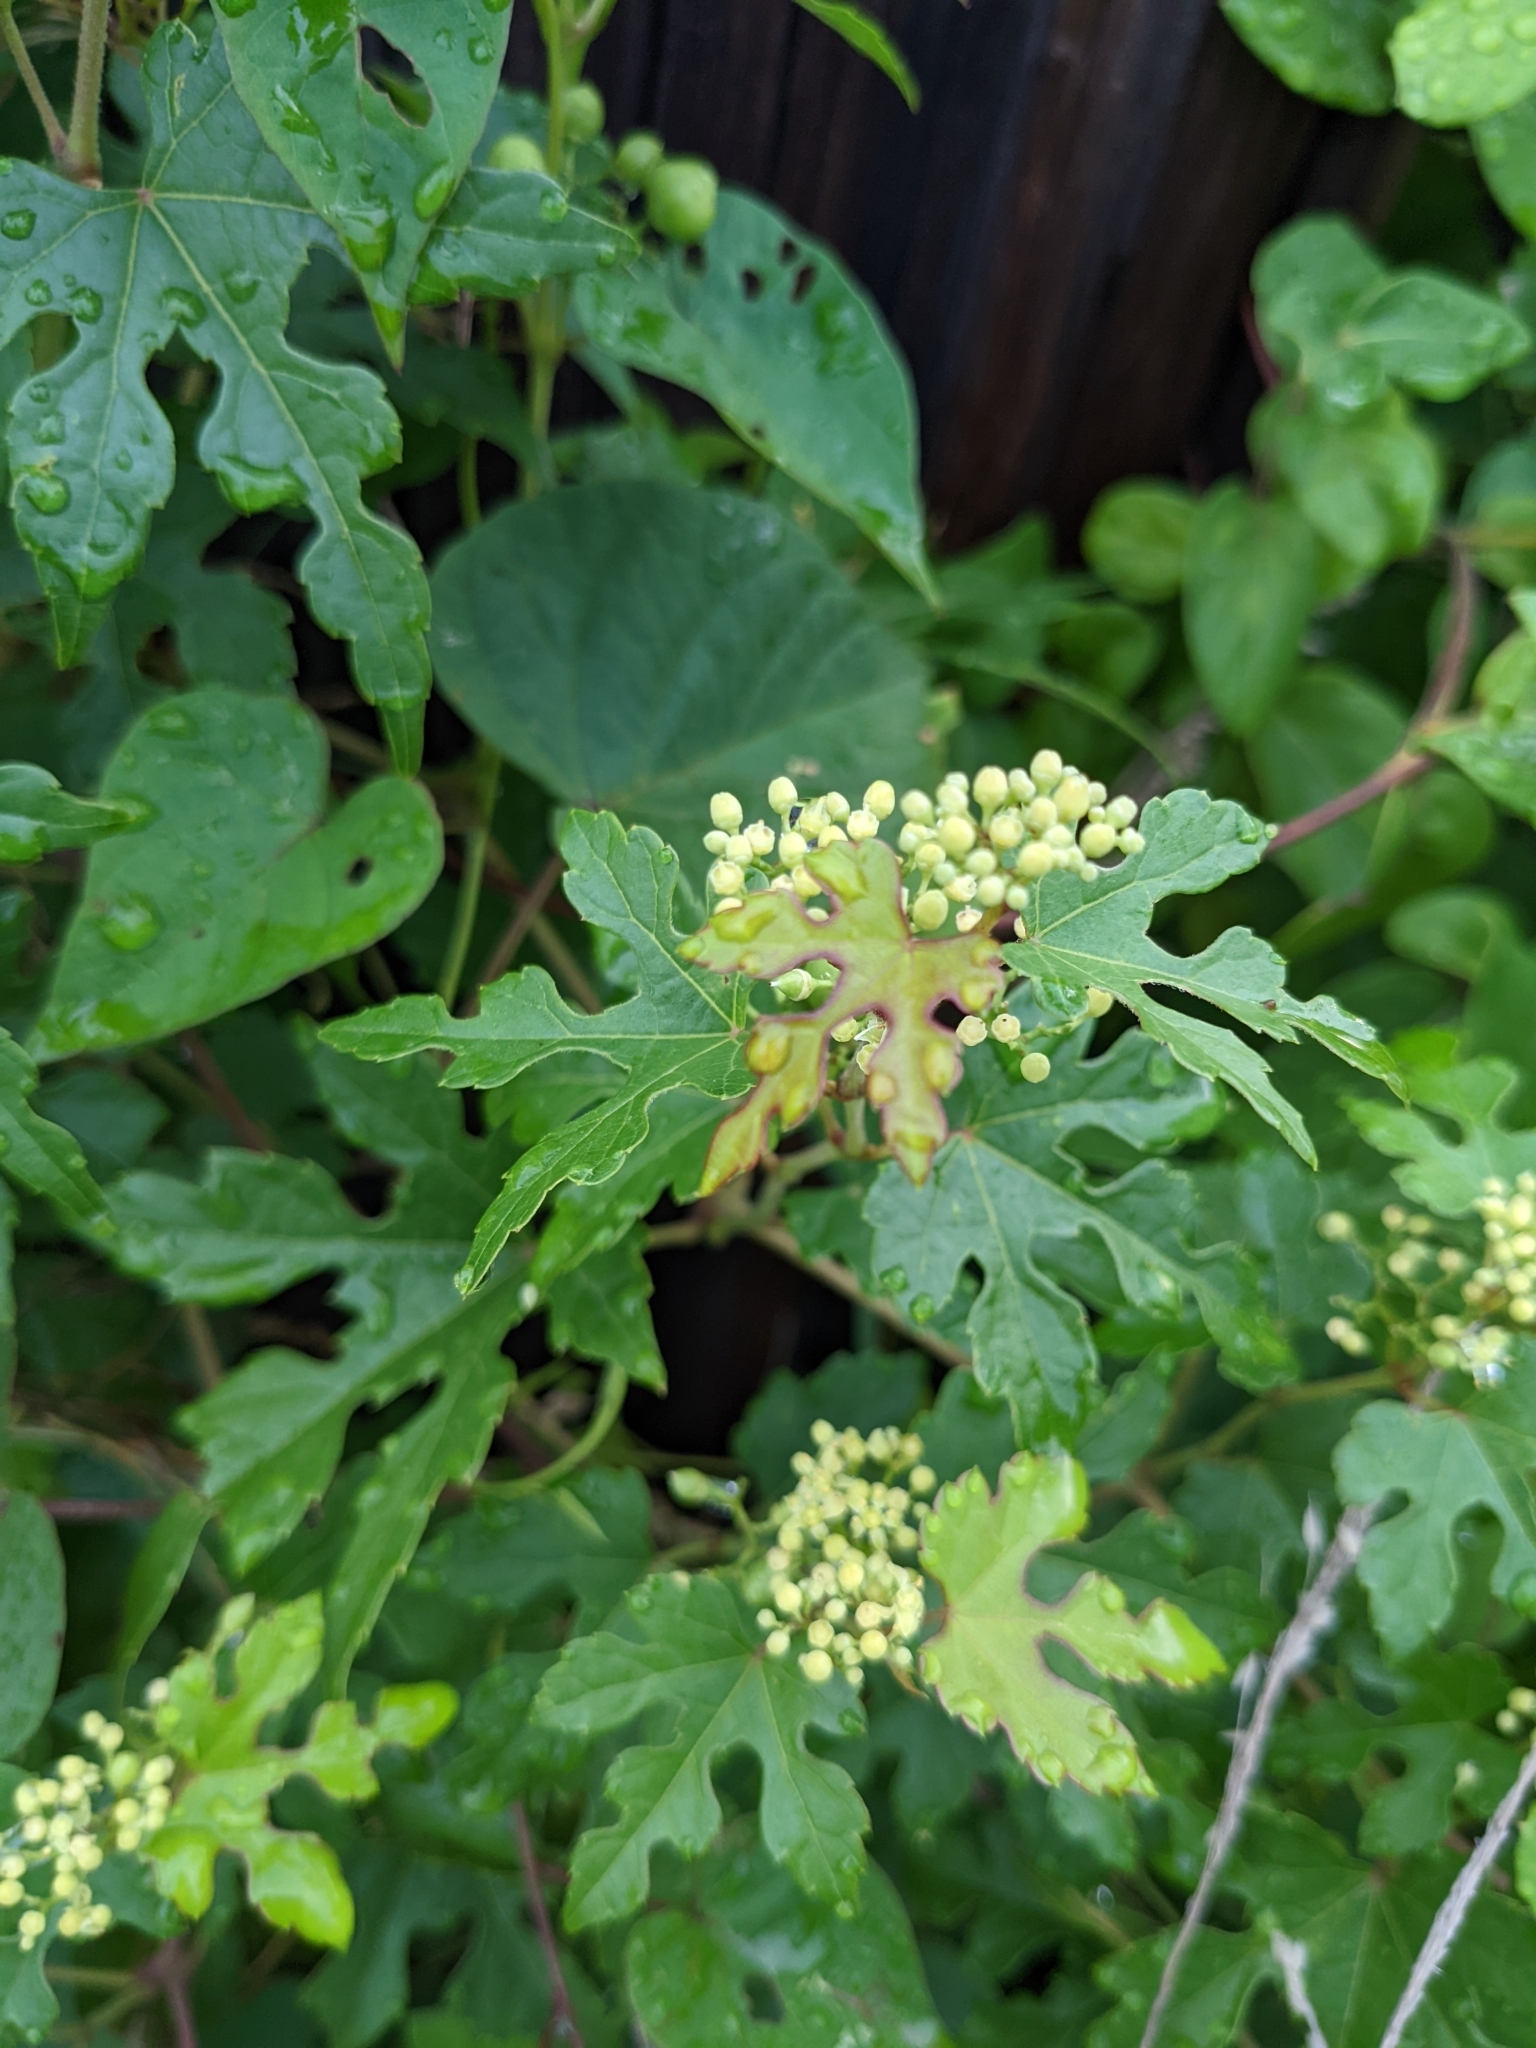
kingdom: Plantae
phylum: Tracheophyta
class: Magnoliopsida
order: Vitales
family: Vitaceae
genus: Ampelopsis
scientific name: Ampelopsis glandulosa
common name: Amur peppervine
